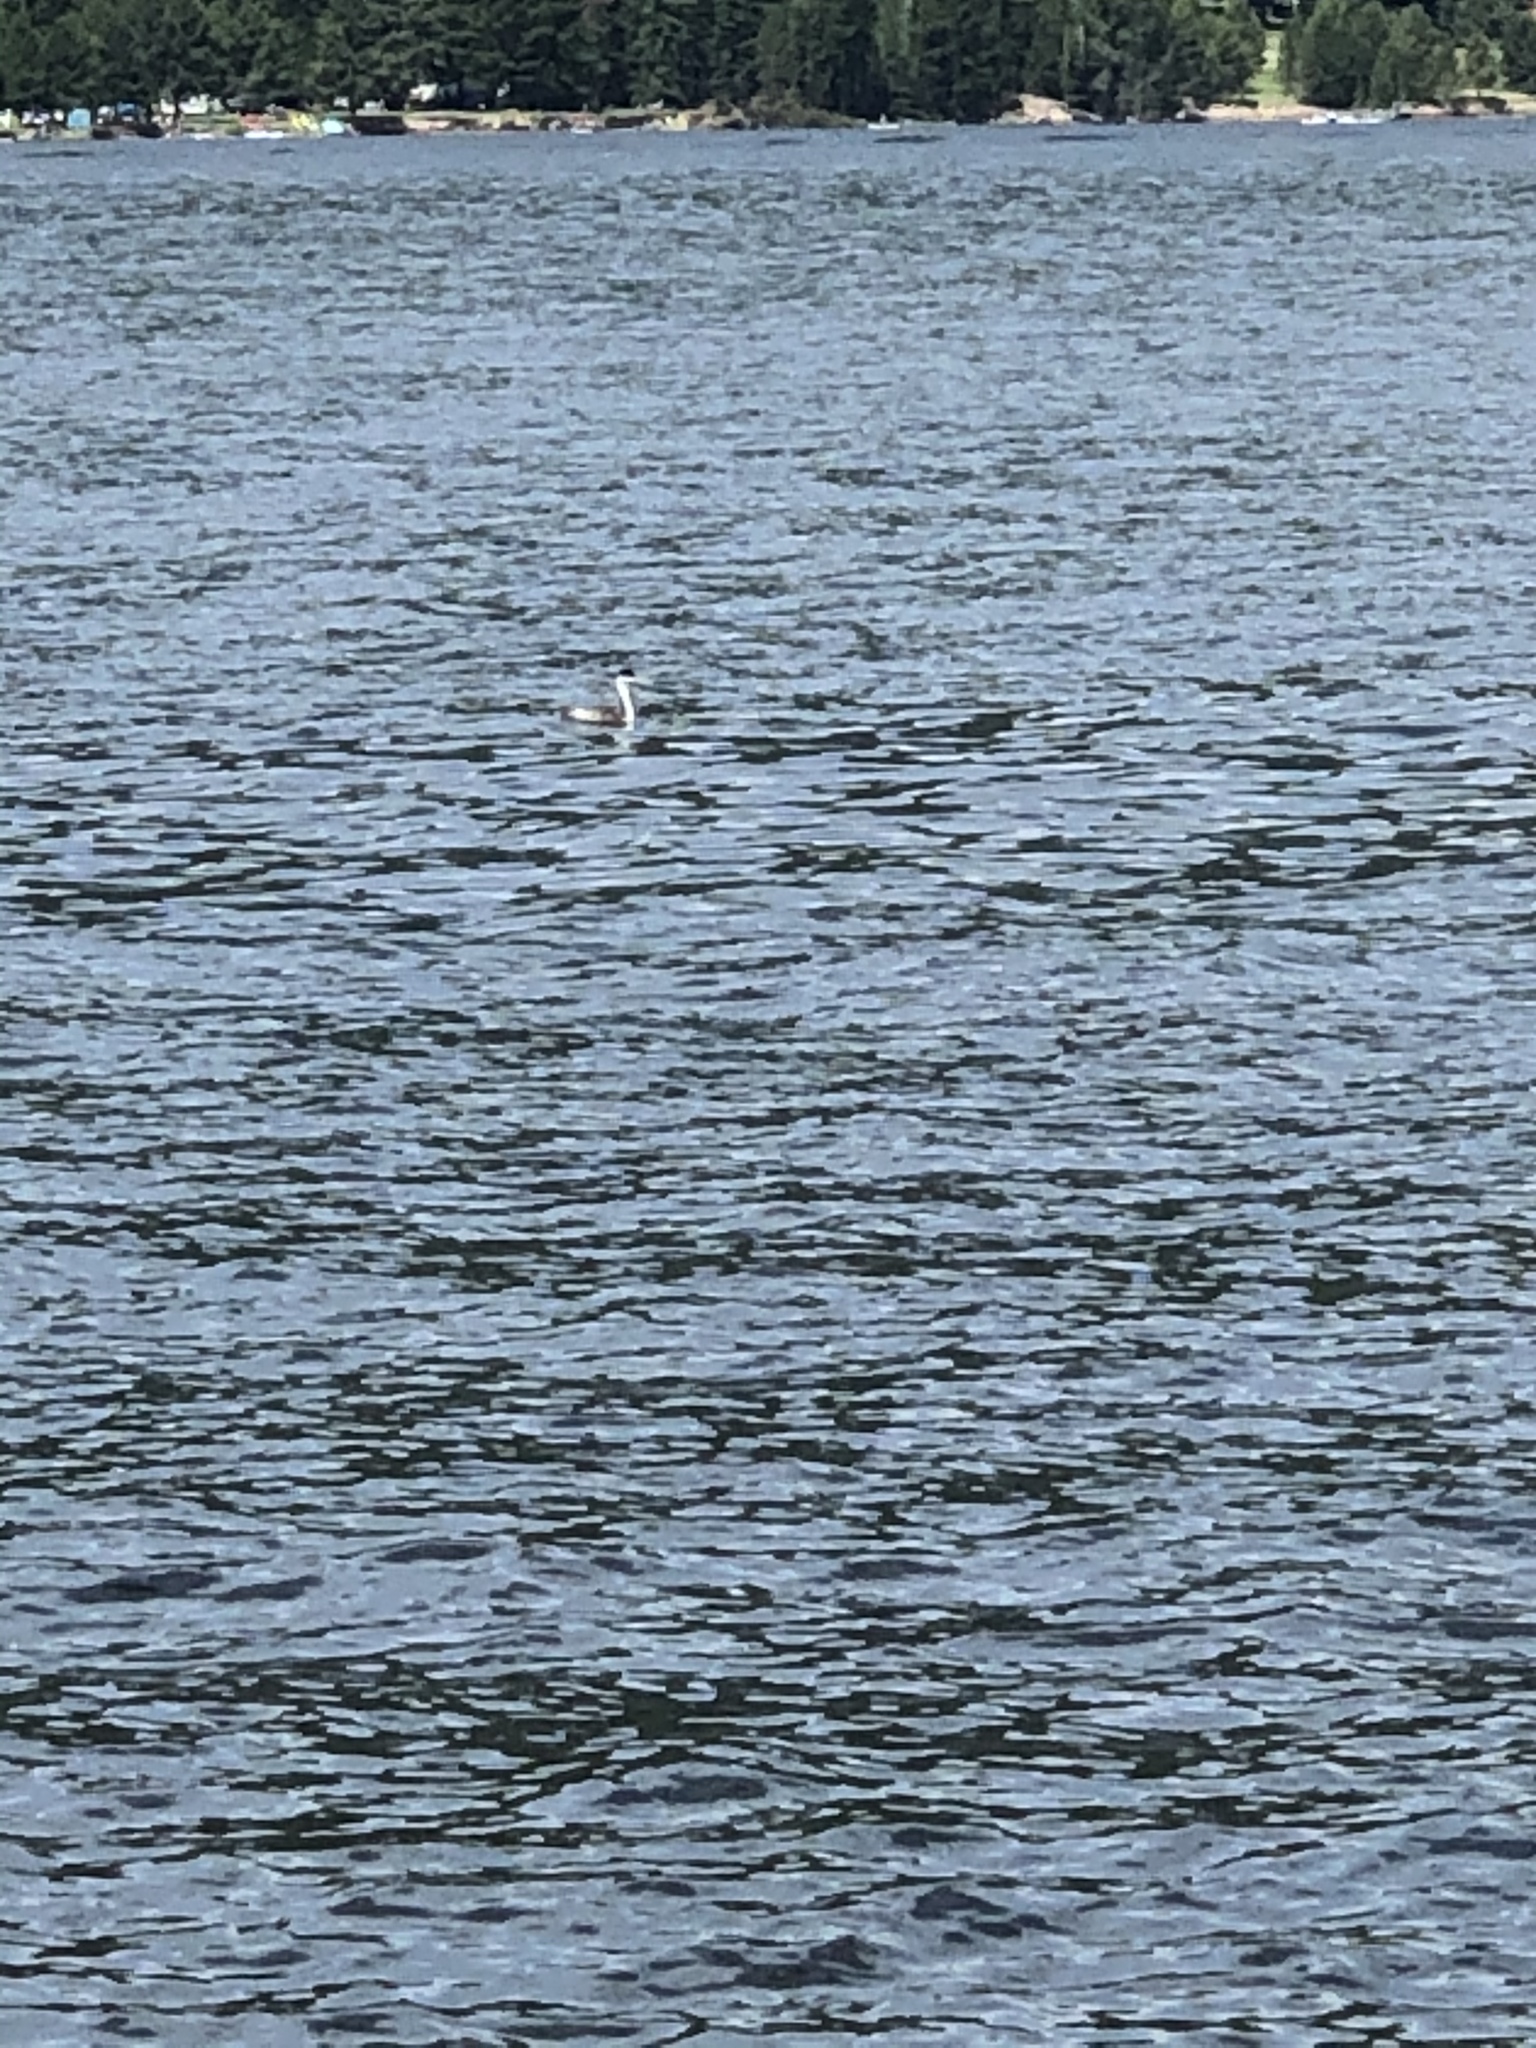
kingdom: Animalia
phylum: Chordata
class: Aves
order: Podicipediformes
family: Podicipedidae
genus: Aechmophorus
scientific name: Aechmophorus occidentalis
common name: Western grebe
